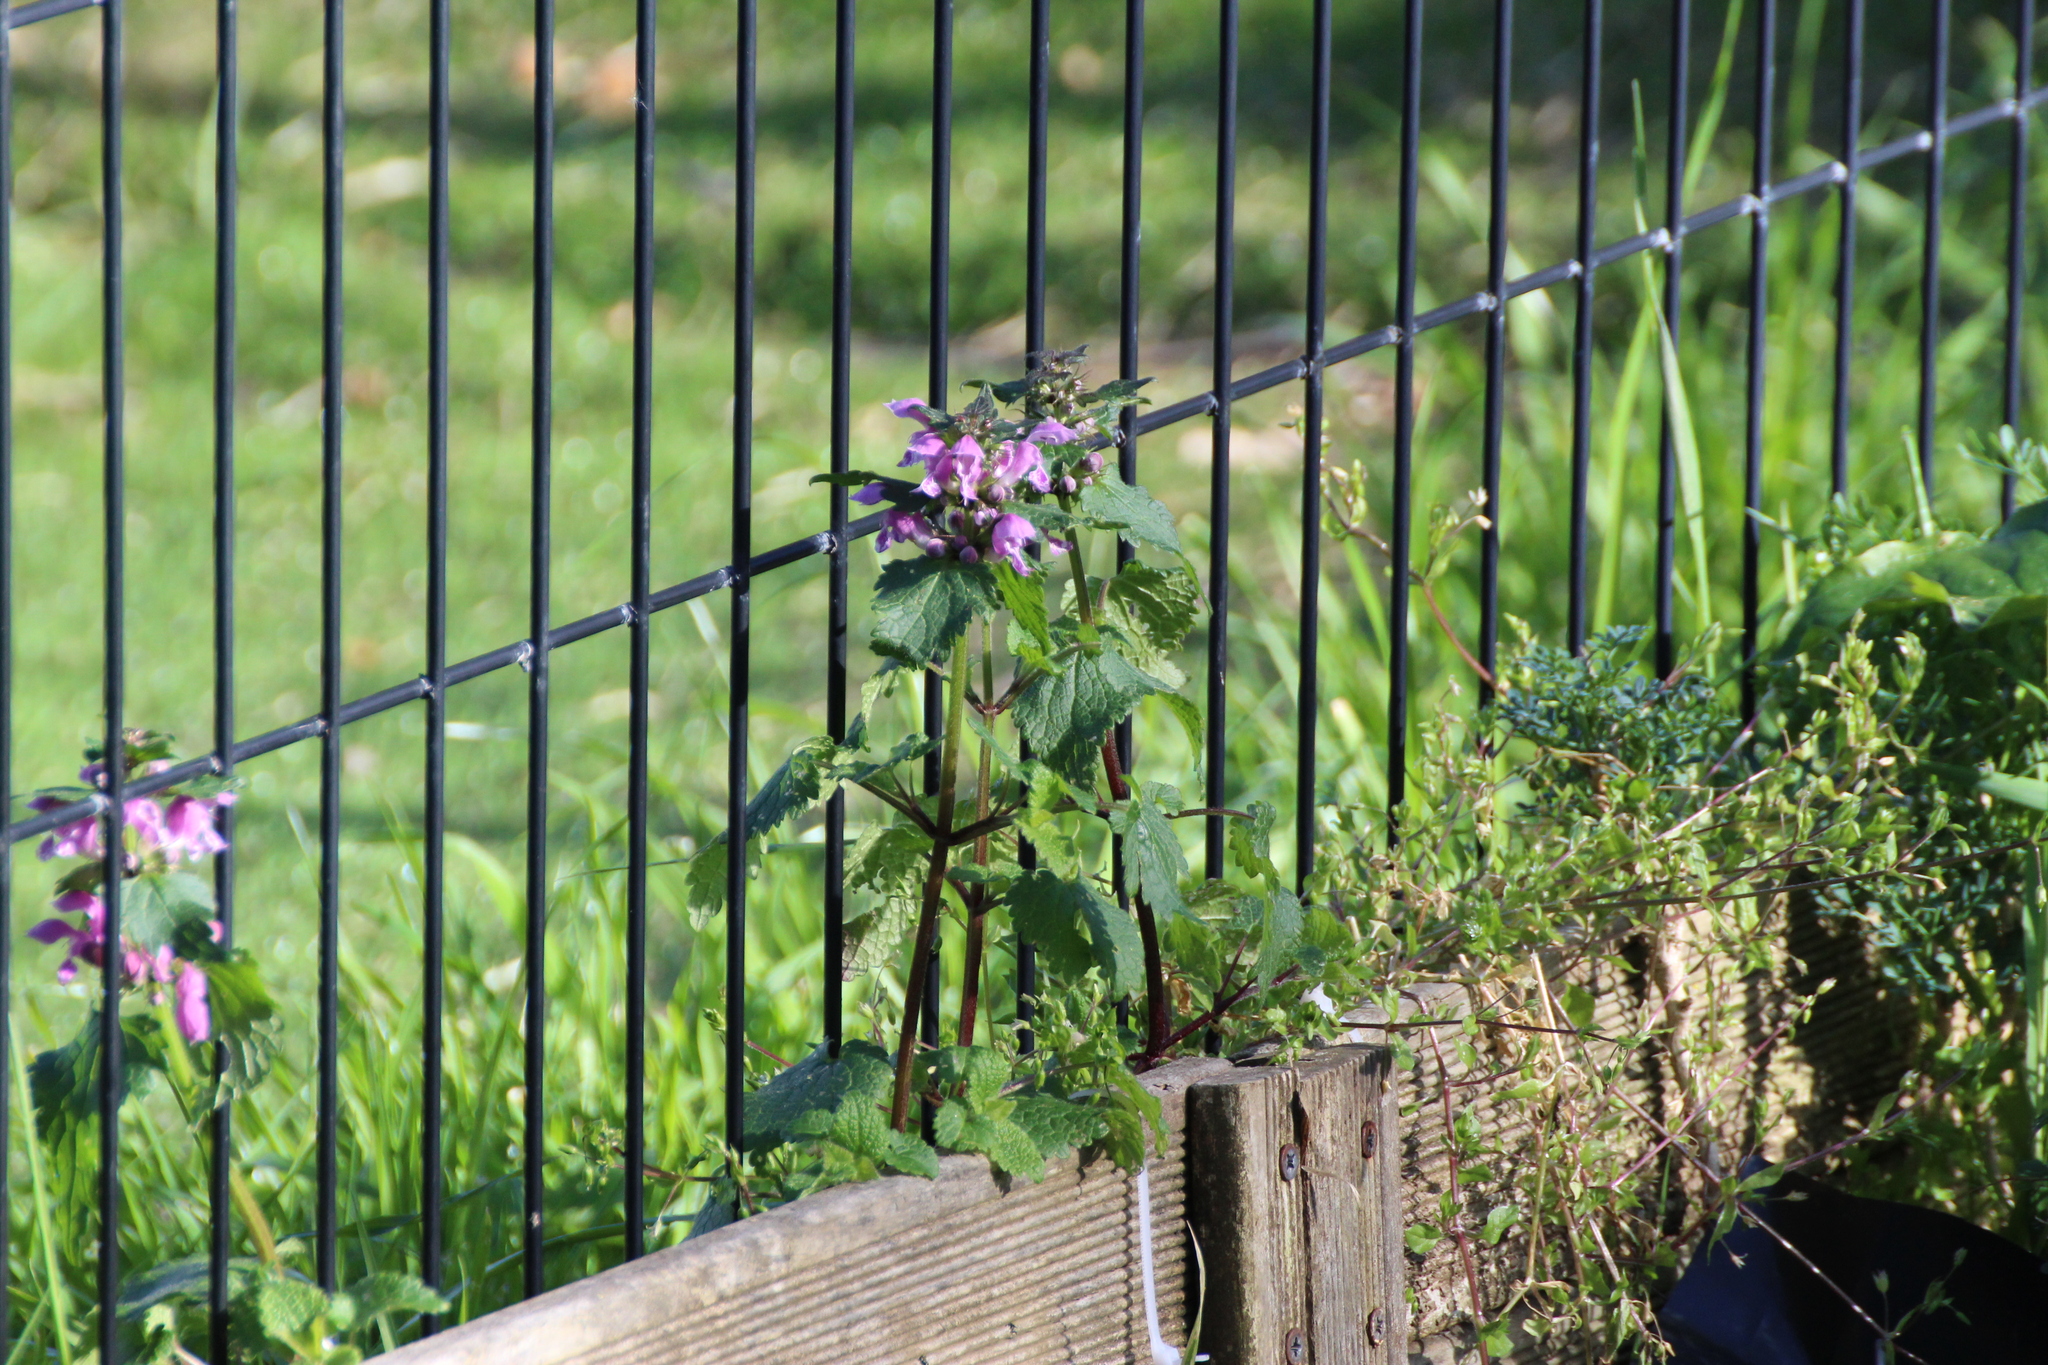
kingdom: Plantae
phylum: Tracheophyta
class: Magnoliopsida
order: Lamiales
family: Lamiaceae
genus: Lamium
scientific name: Lamium maculatum
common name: Spotted dead-nettle
